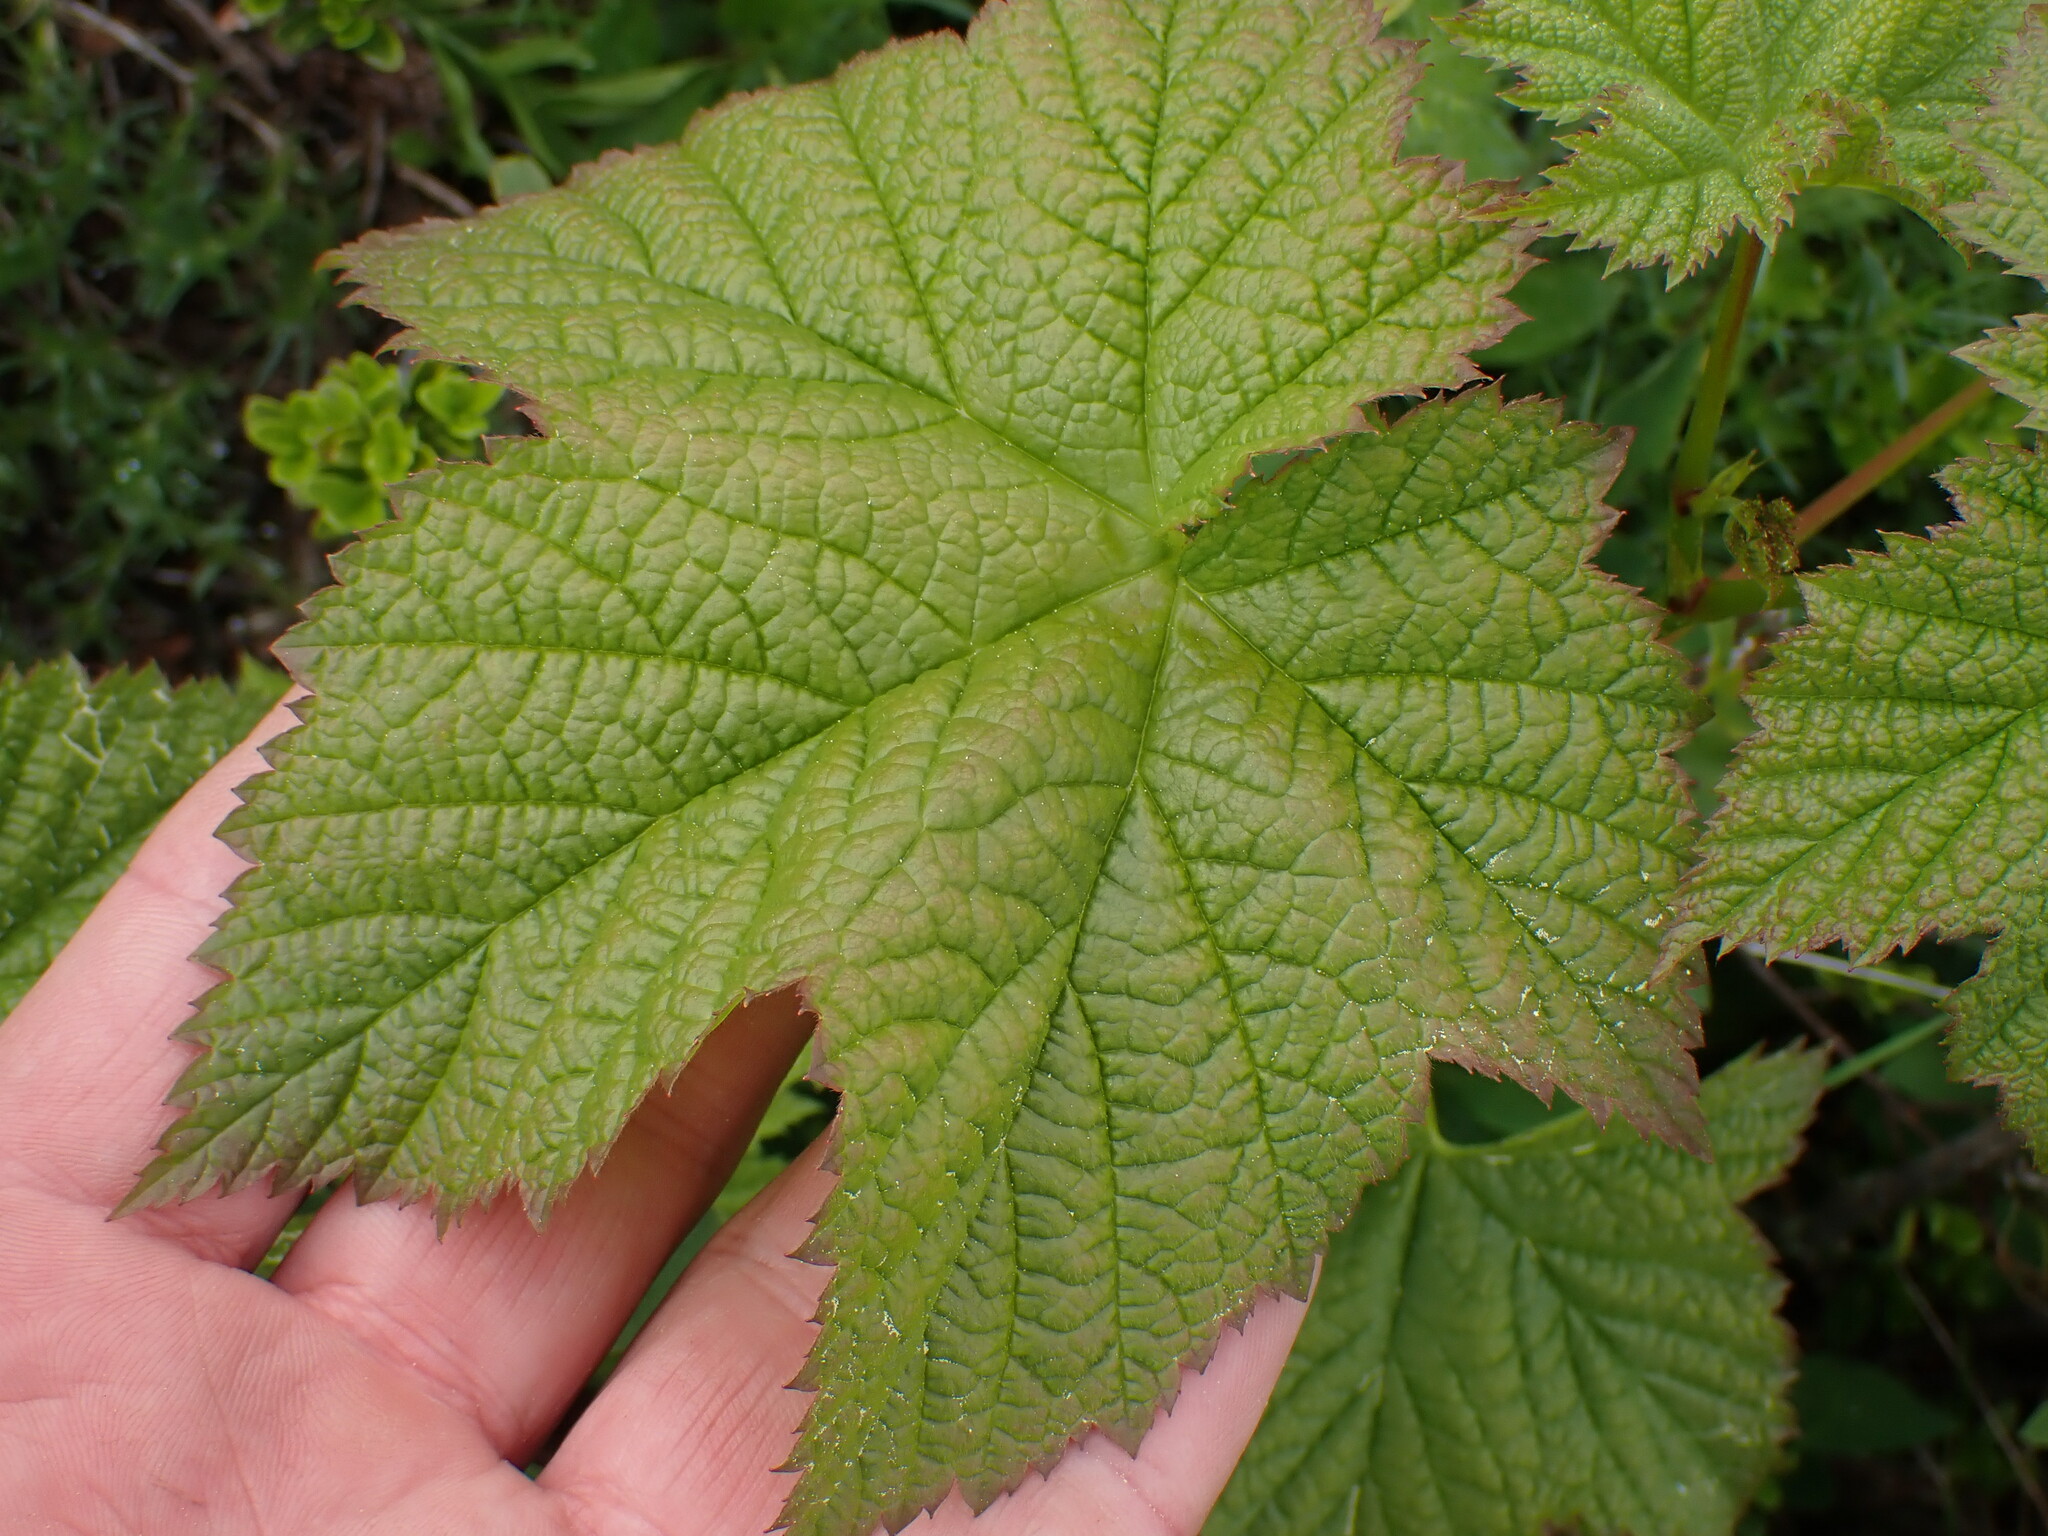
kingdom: Plantae
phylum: Tracheophyta
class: Magnoliopsida
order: Rosales
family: Rosaceae
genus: Rubus
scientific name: Rubus parviflorus
